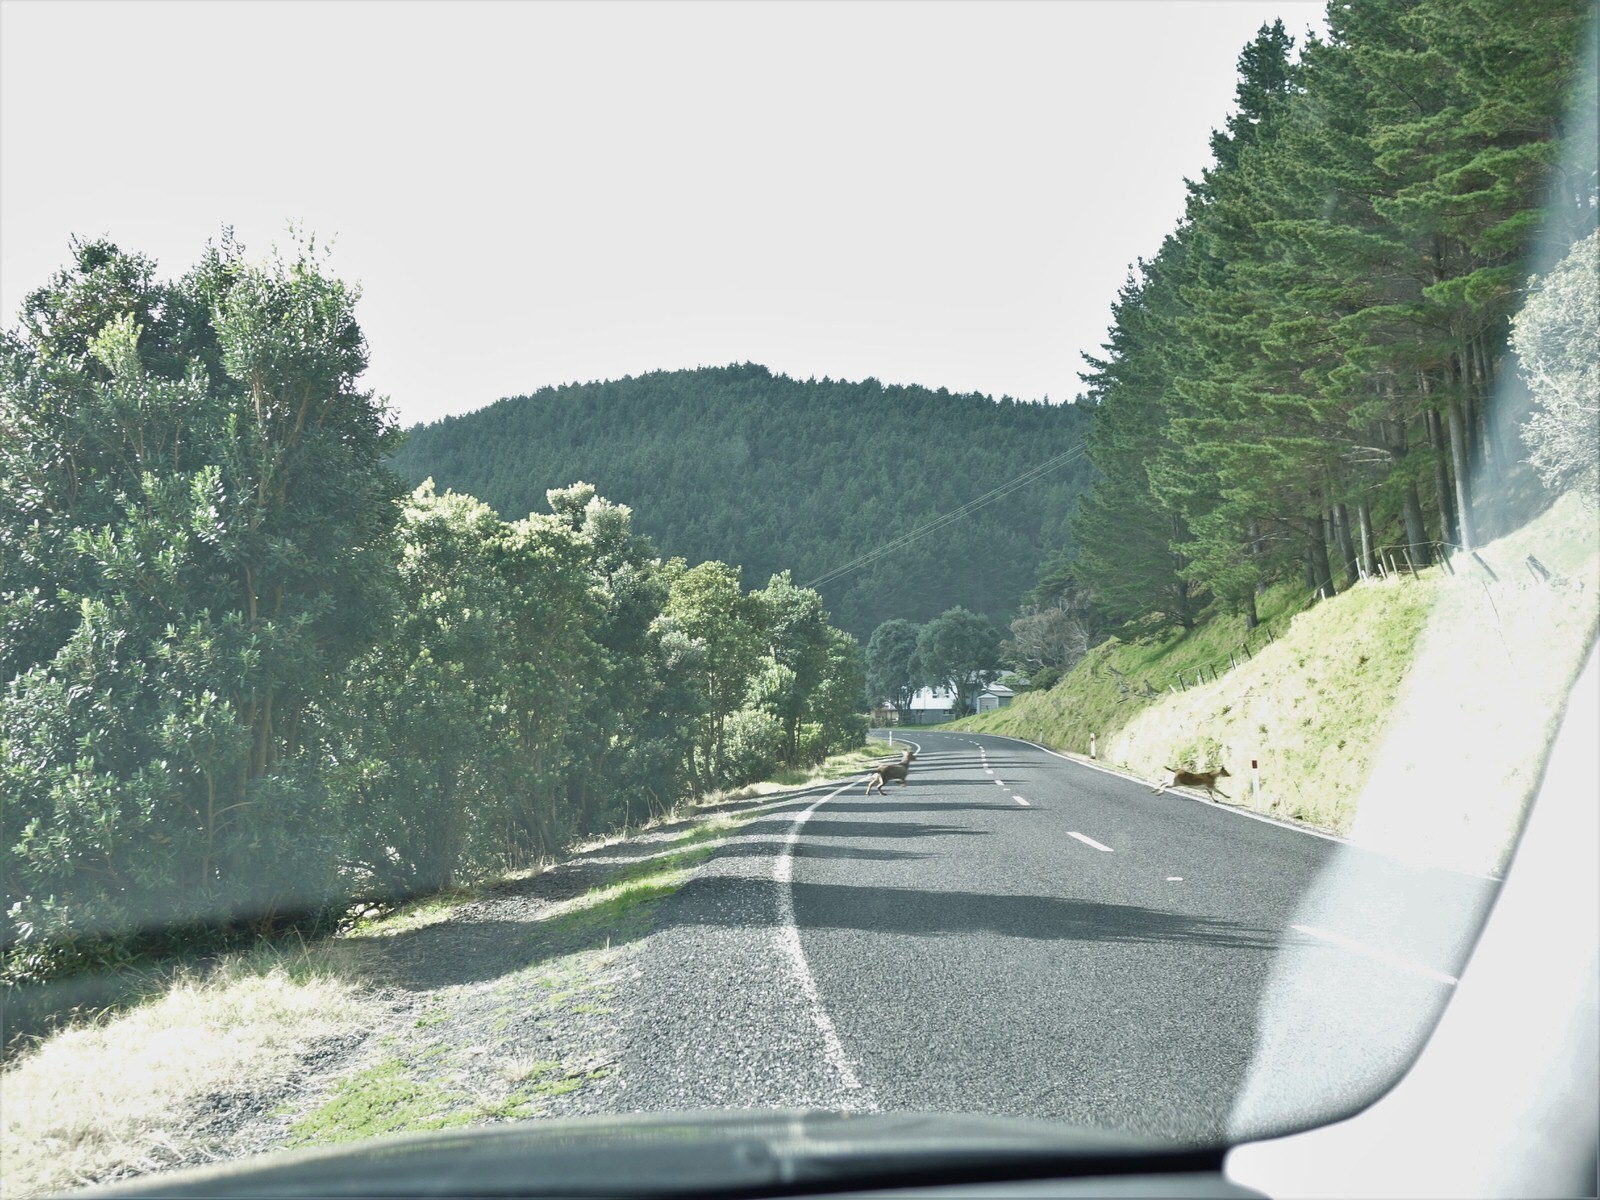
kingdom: Animalia
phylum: Chordata
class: Mammalia
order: Artiodactyla
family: Bovidae
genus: Capra
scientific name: Capra hircus
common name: Domestic goat
